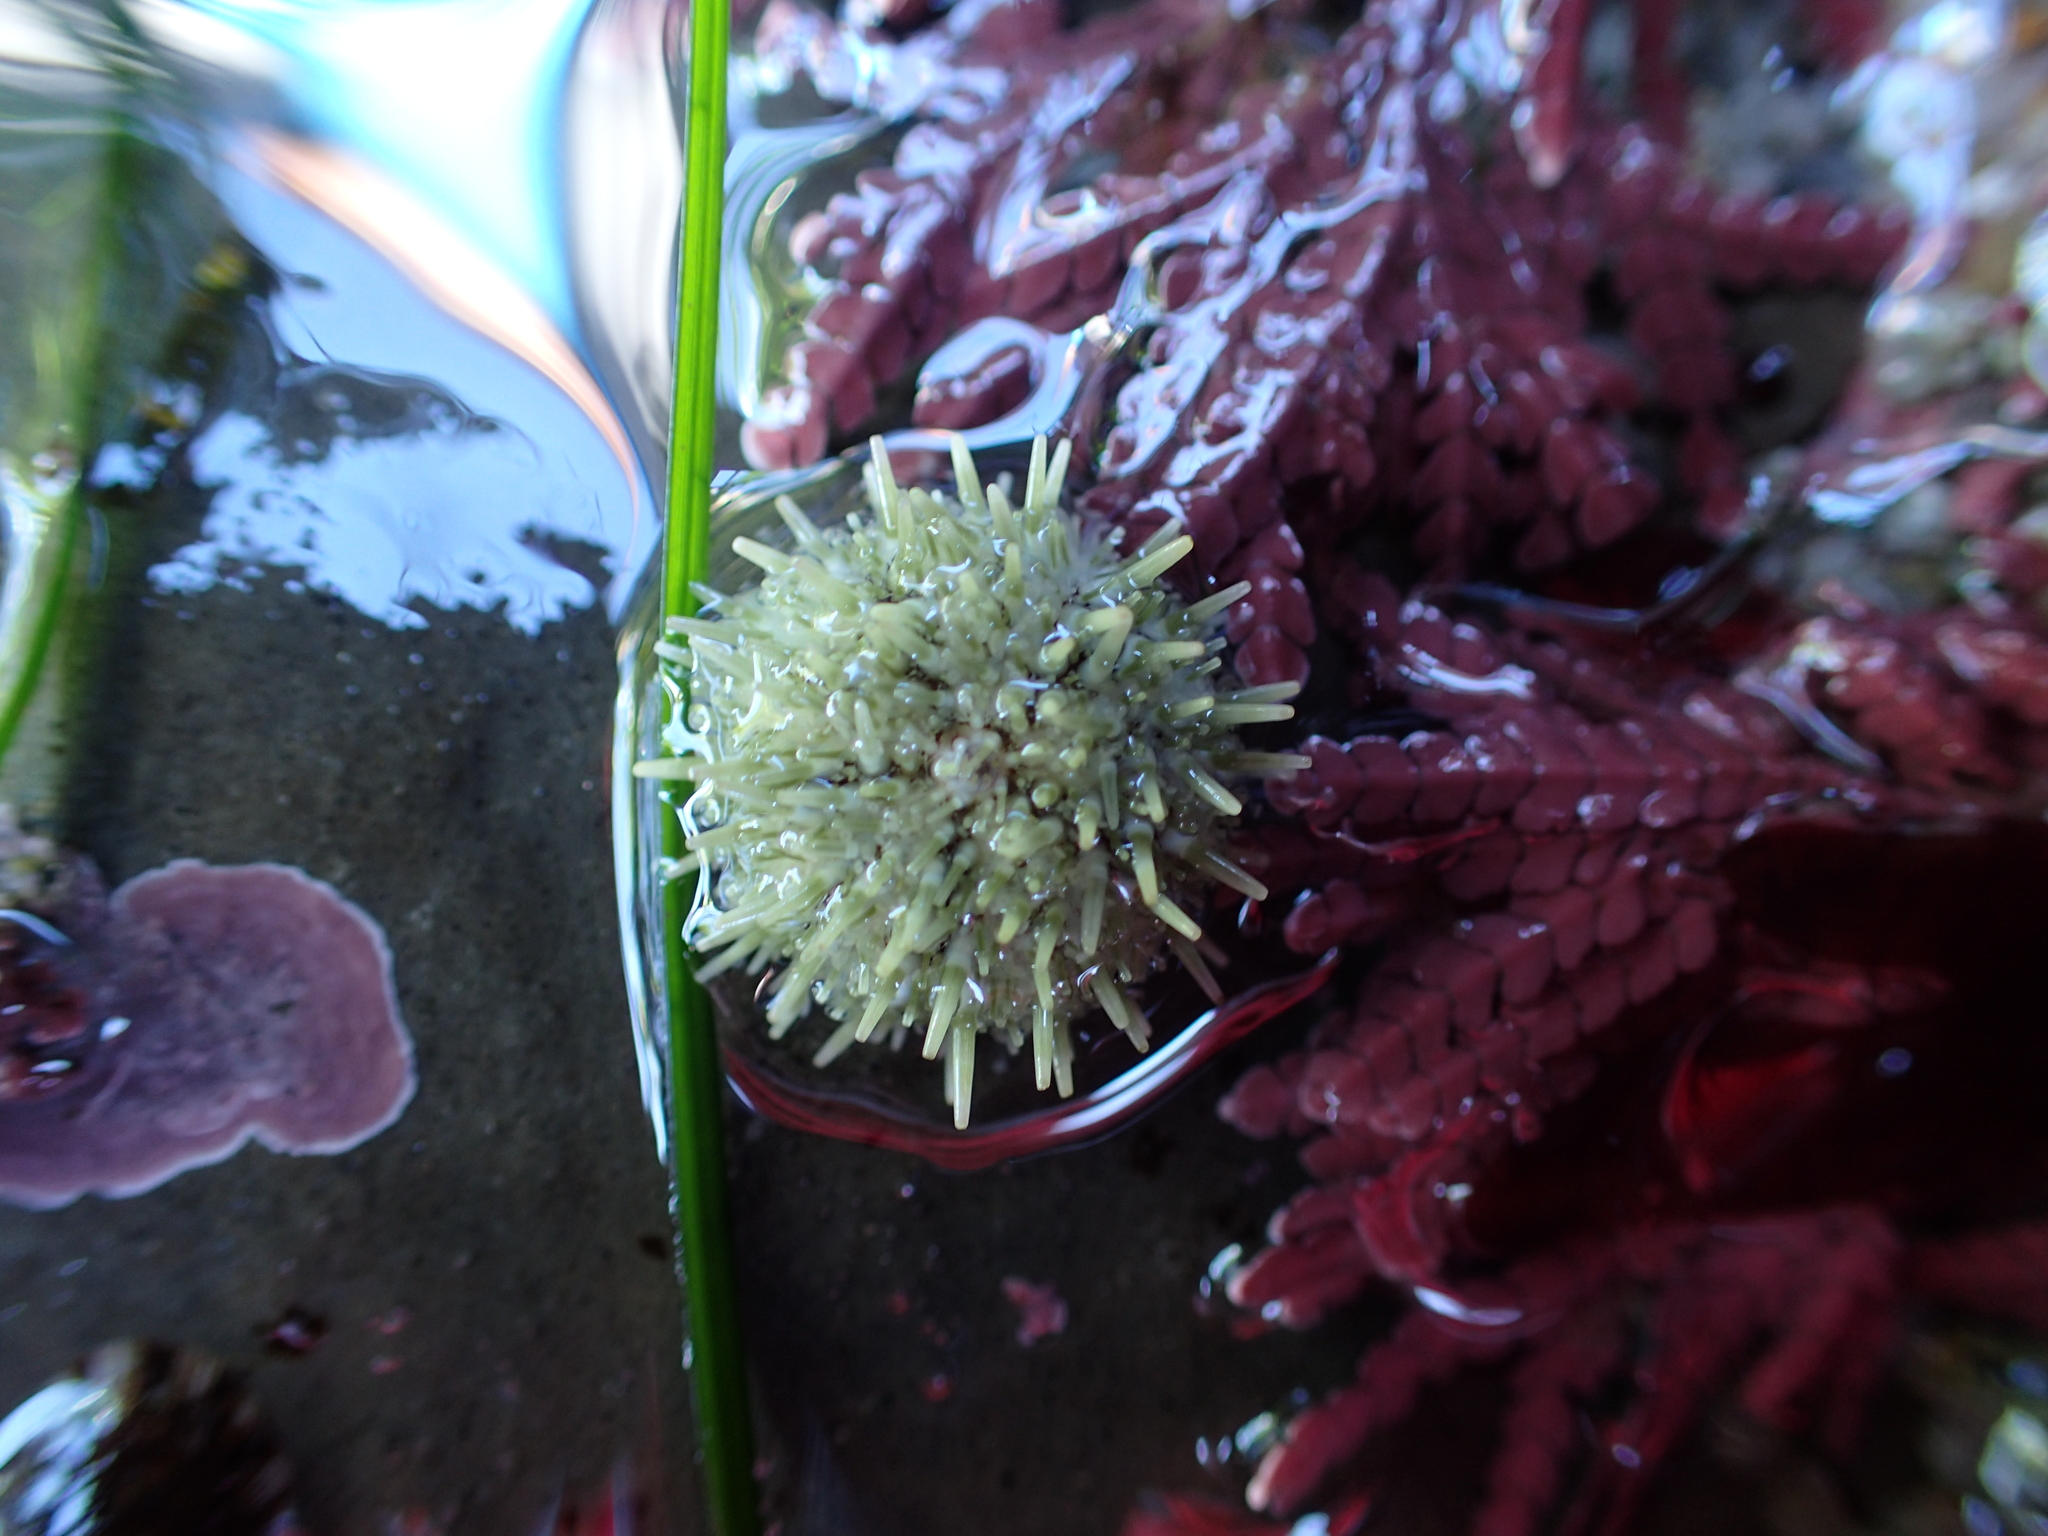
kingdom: Animalia
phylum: Echinodermata
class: Echinoidea
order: Camarodonta
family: Strongylocentrotidae
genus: Strongylocentrotus
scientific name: Strongylocentrotus purpuratus
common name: Purple sea urchin
